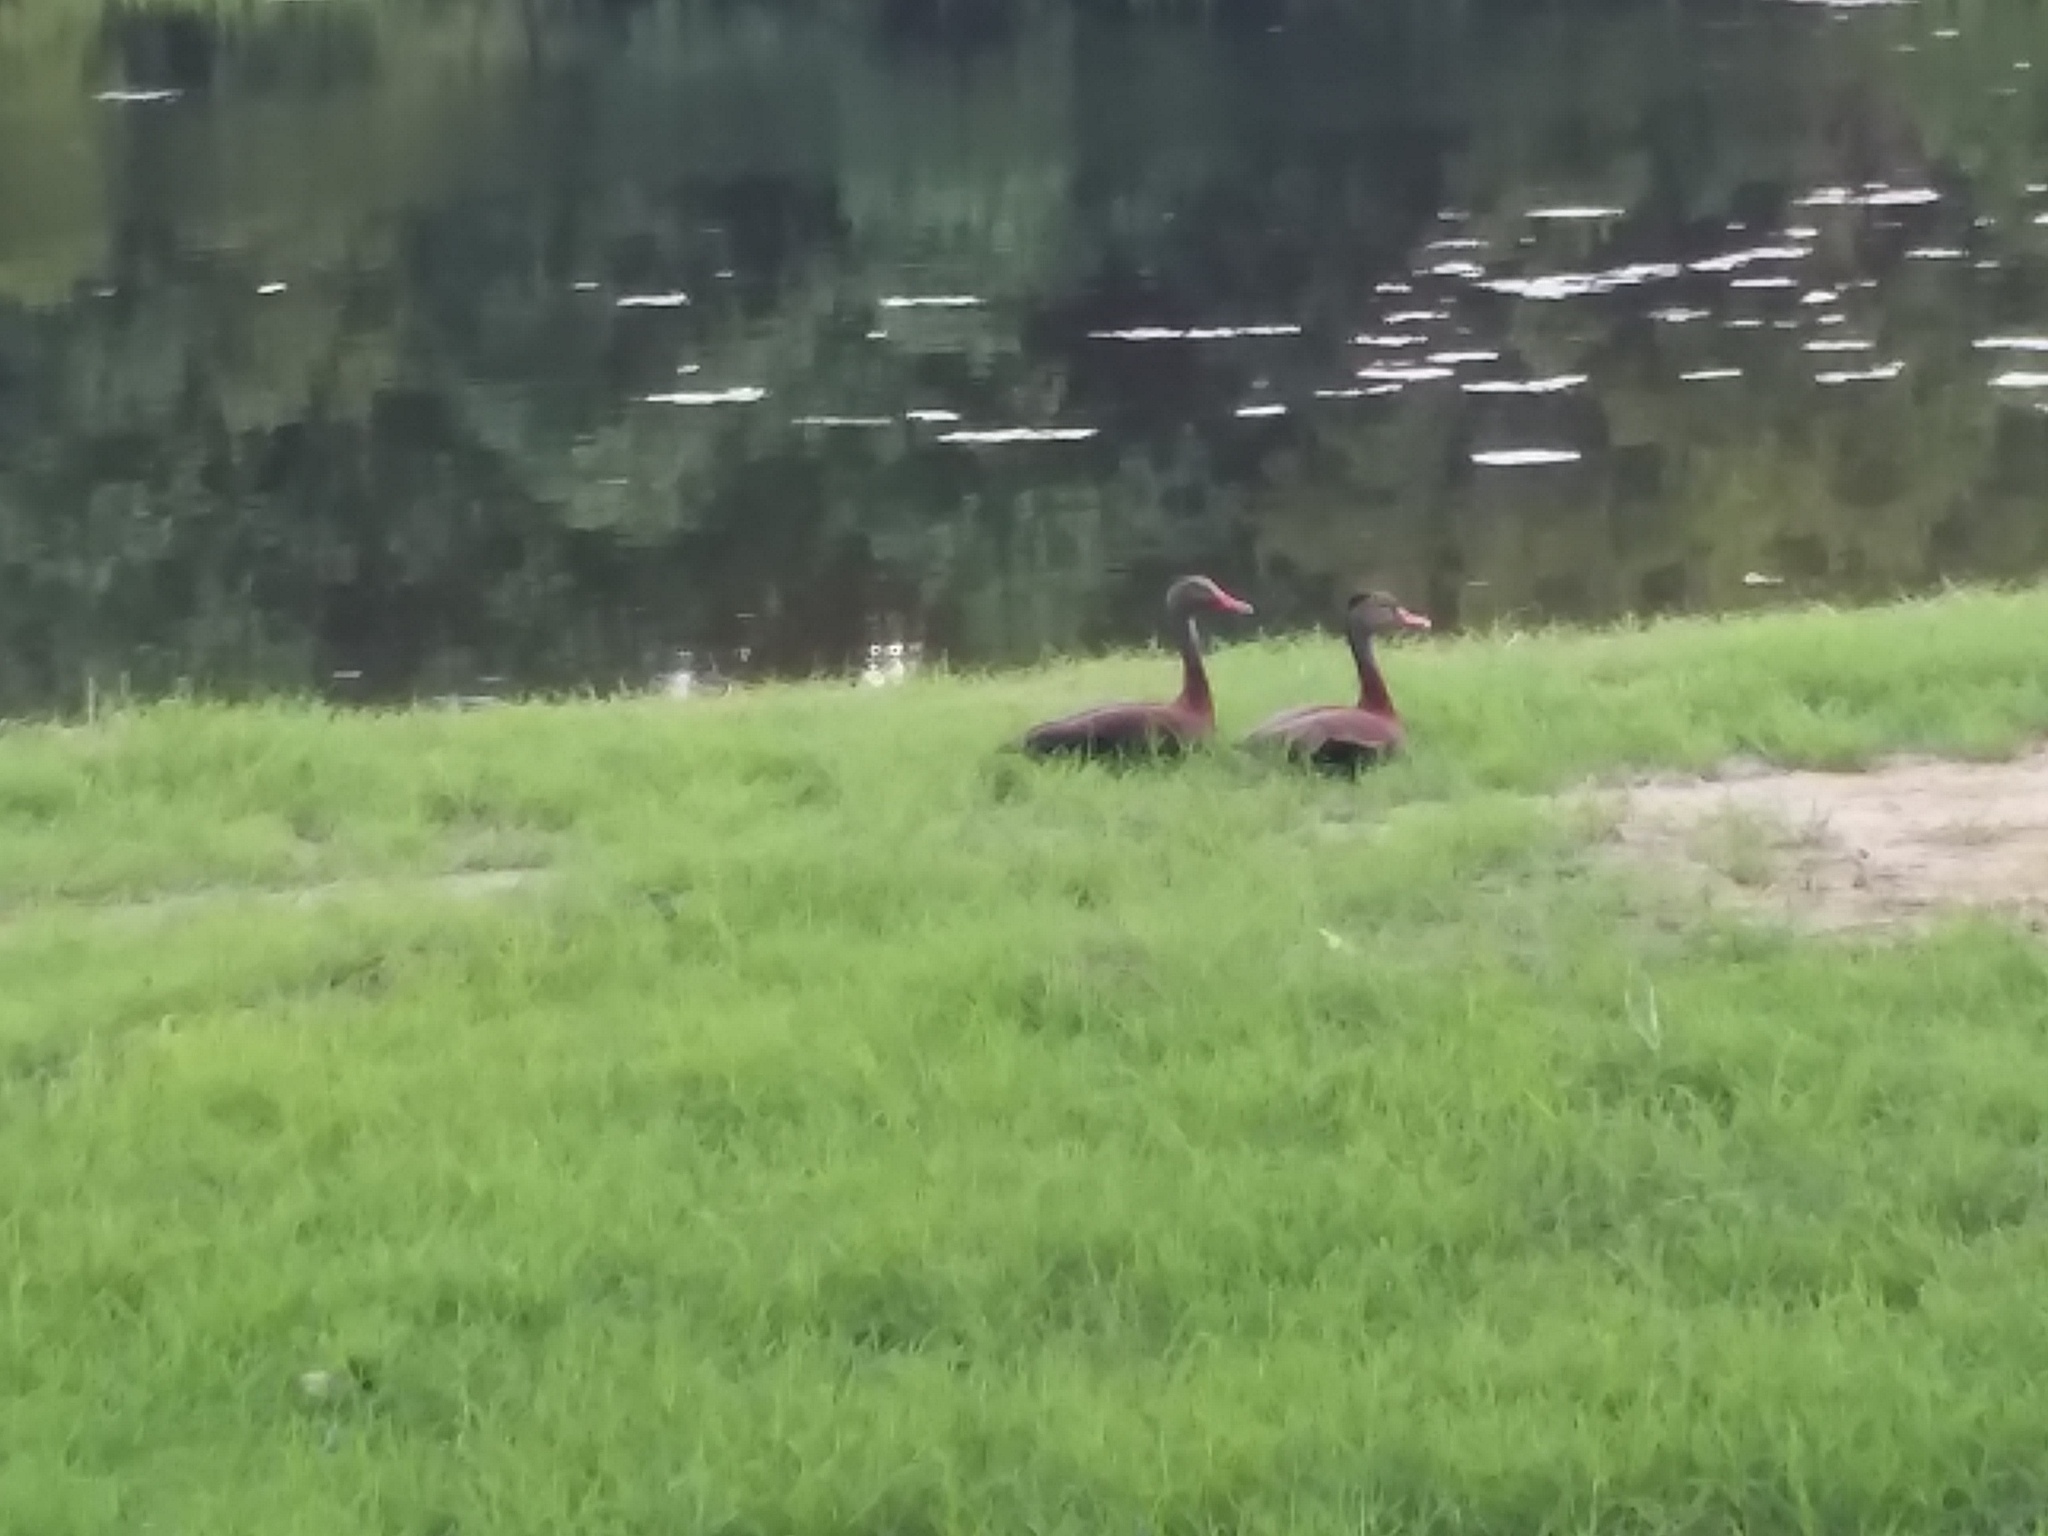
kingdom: Animalia
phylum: Chordata
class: Aves
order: Anseriformes
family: Anatidae
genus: Dendrocygna
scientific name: Dendrocygna autumnalis
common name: Black-bellied whistling duck
